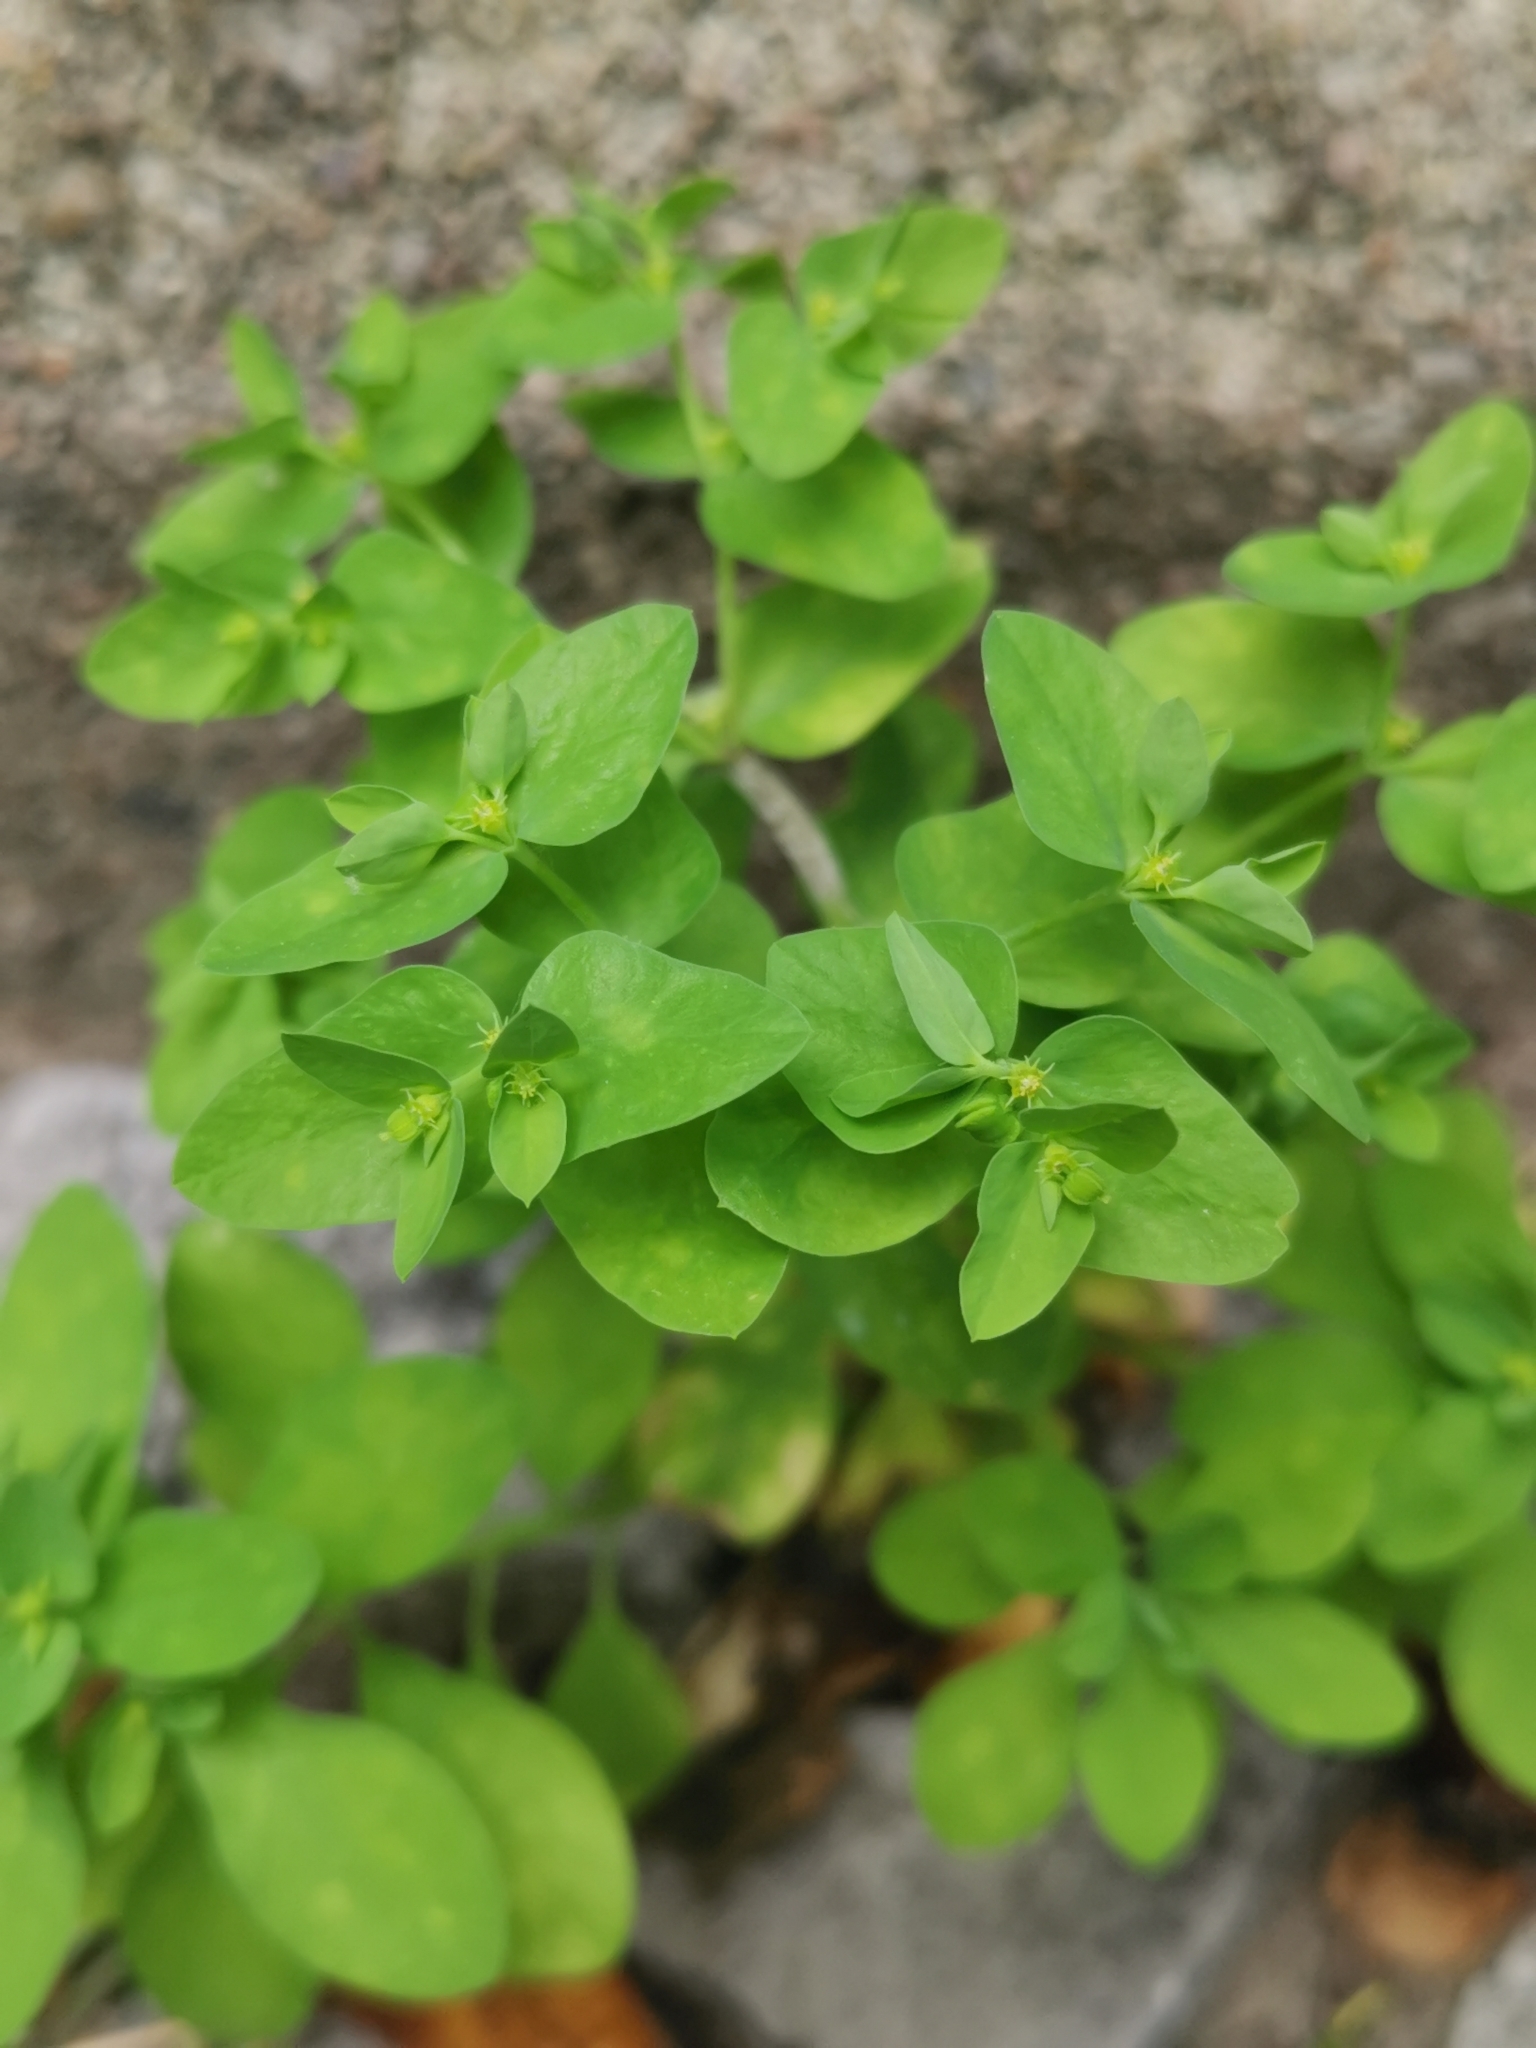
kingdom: Plantae
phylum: Tracheophyta
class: Magnoliopsida
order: Malpighiales
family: Euphorbiaceae
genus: Euphorbia
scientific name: Euphorbia peplus
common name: Petty spurge
